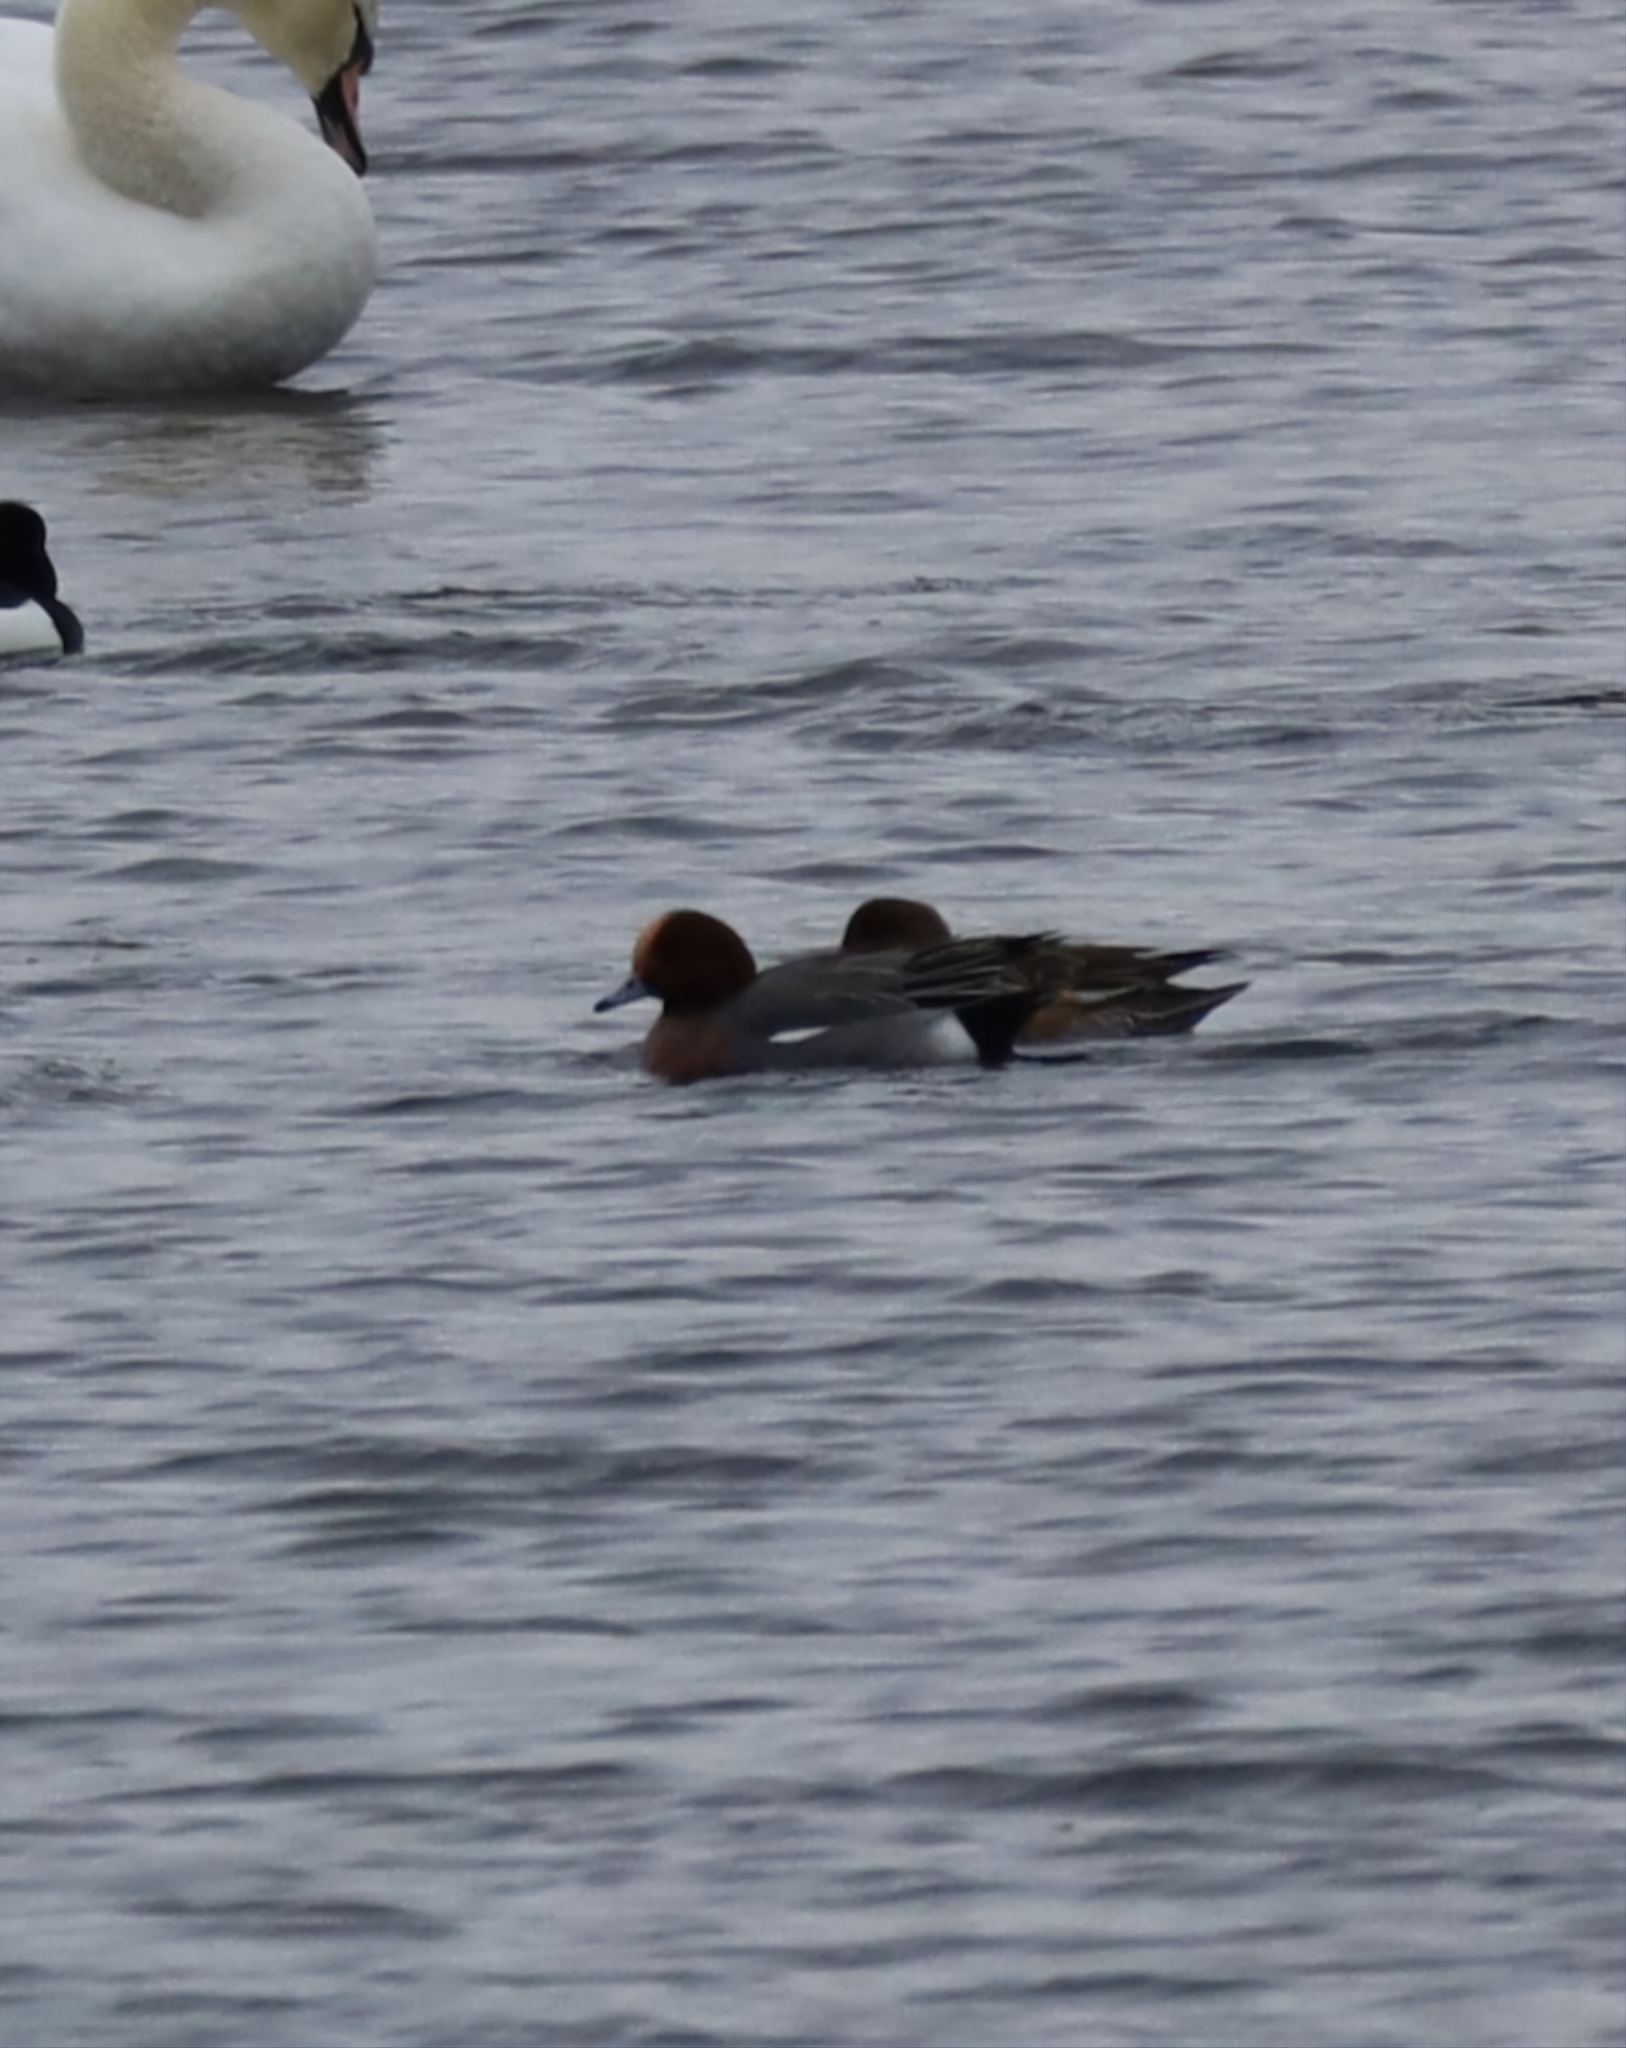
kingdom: Animalia
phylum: Chordata
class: Aves
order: Anseriformes
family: Anatidae
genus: Mareca
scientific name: Mareca penelope
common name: Eurasian wigeon
